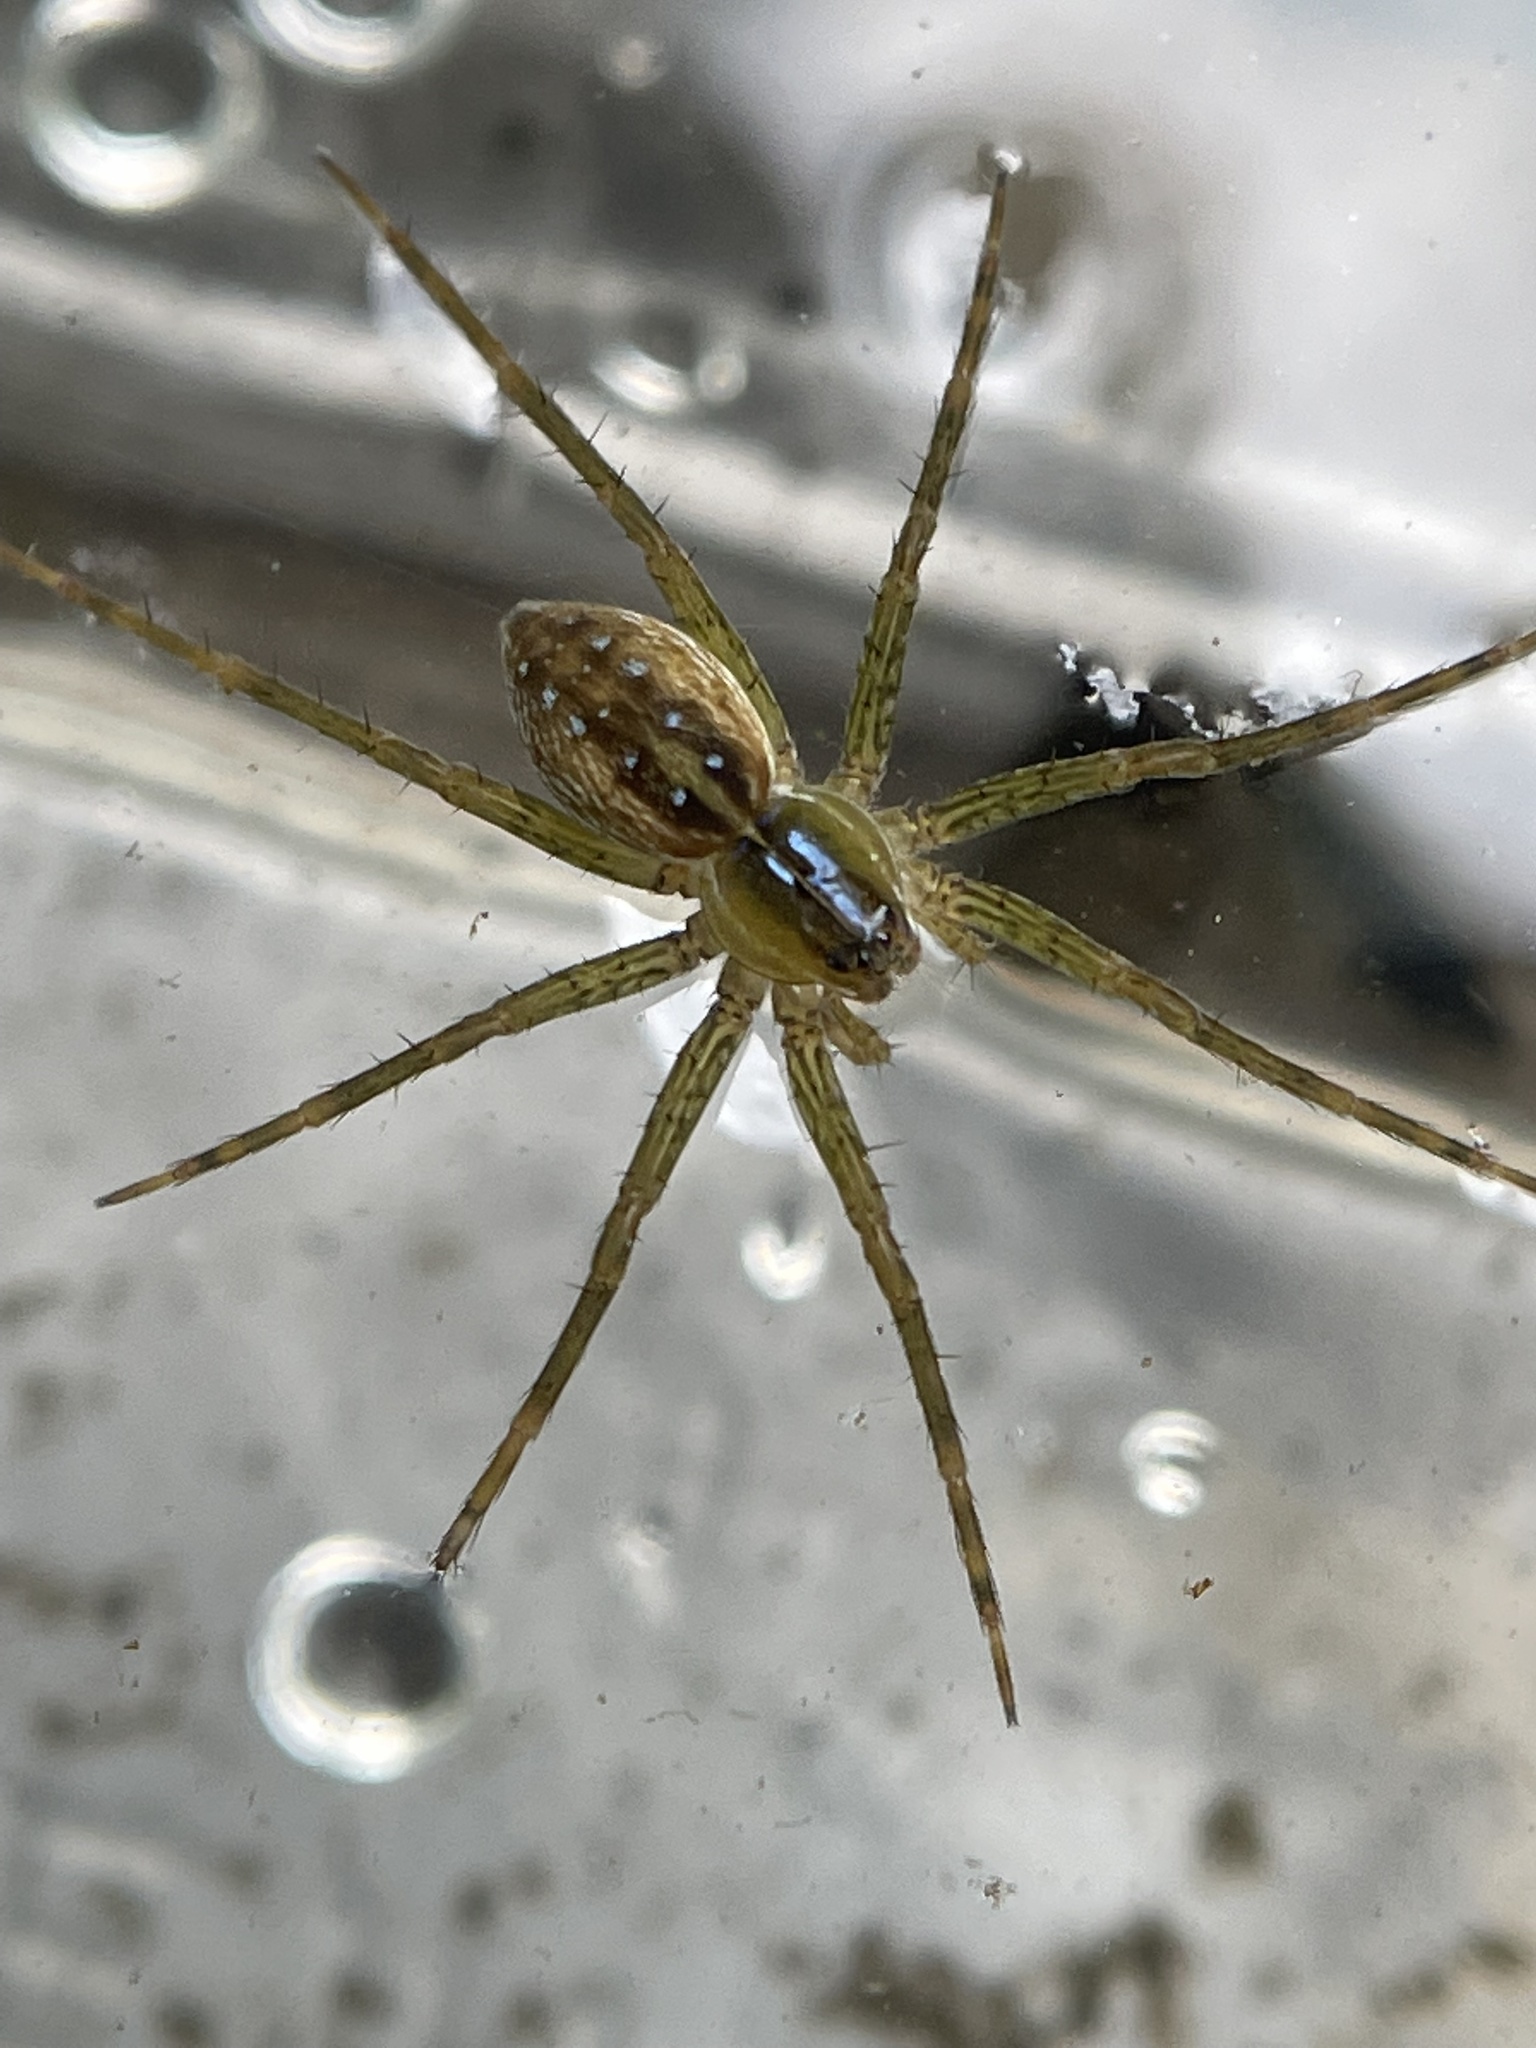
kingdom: Animalia
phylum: Arthropoda
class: Arachnida
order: Araneae
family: Pisauridae
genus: Dolomedes
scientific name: Dolomedes triton
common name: Six-spotted fishing spider
